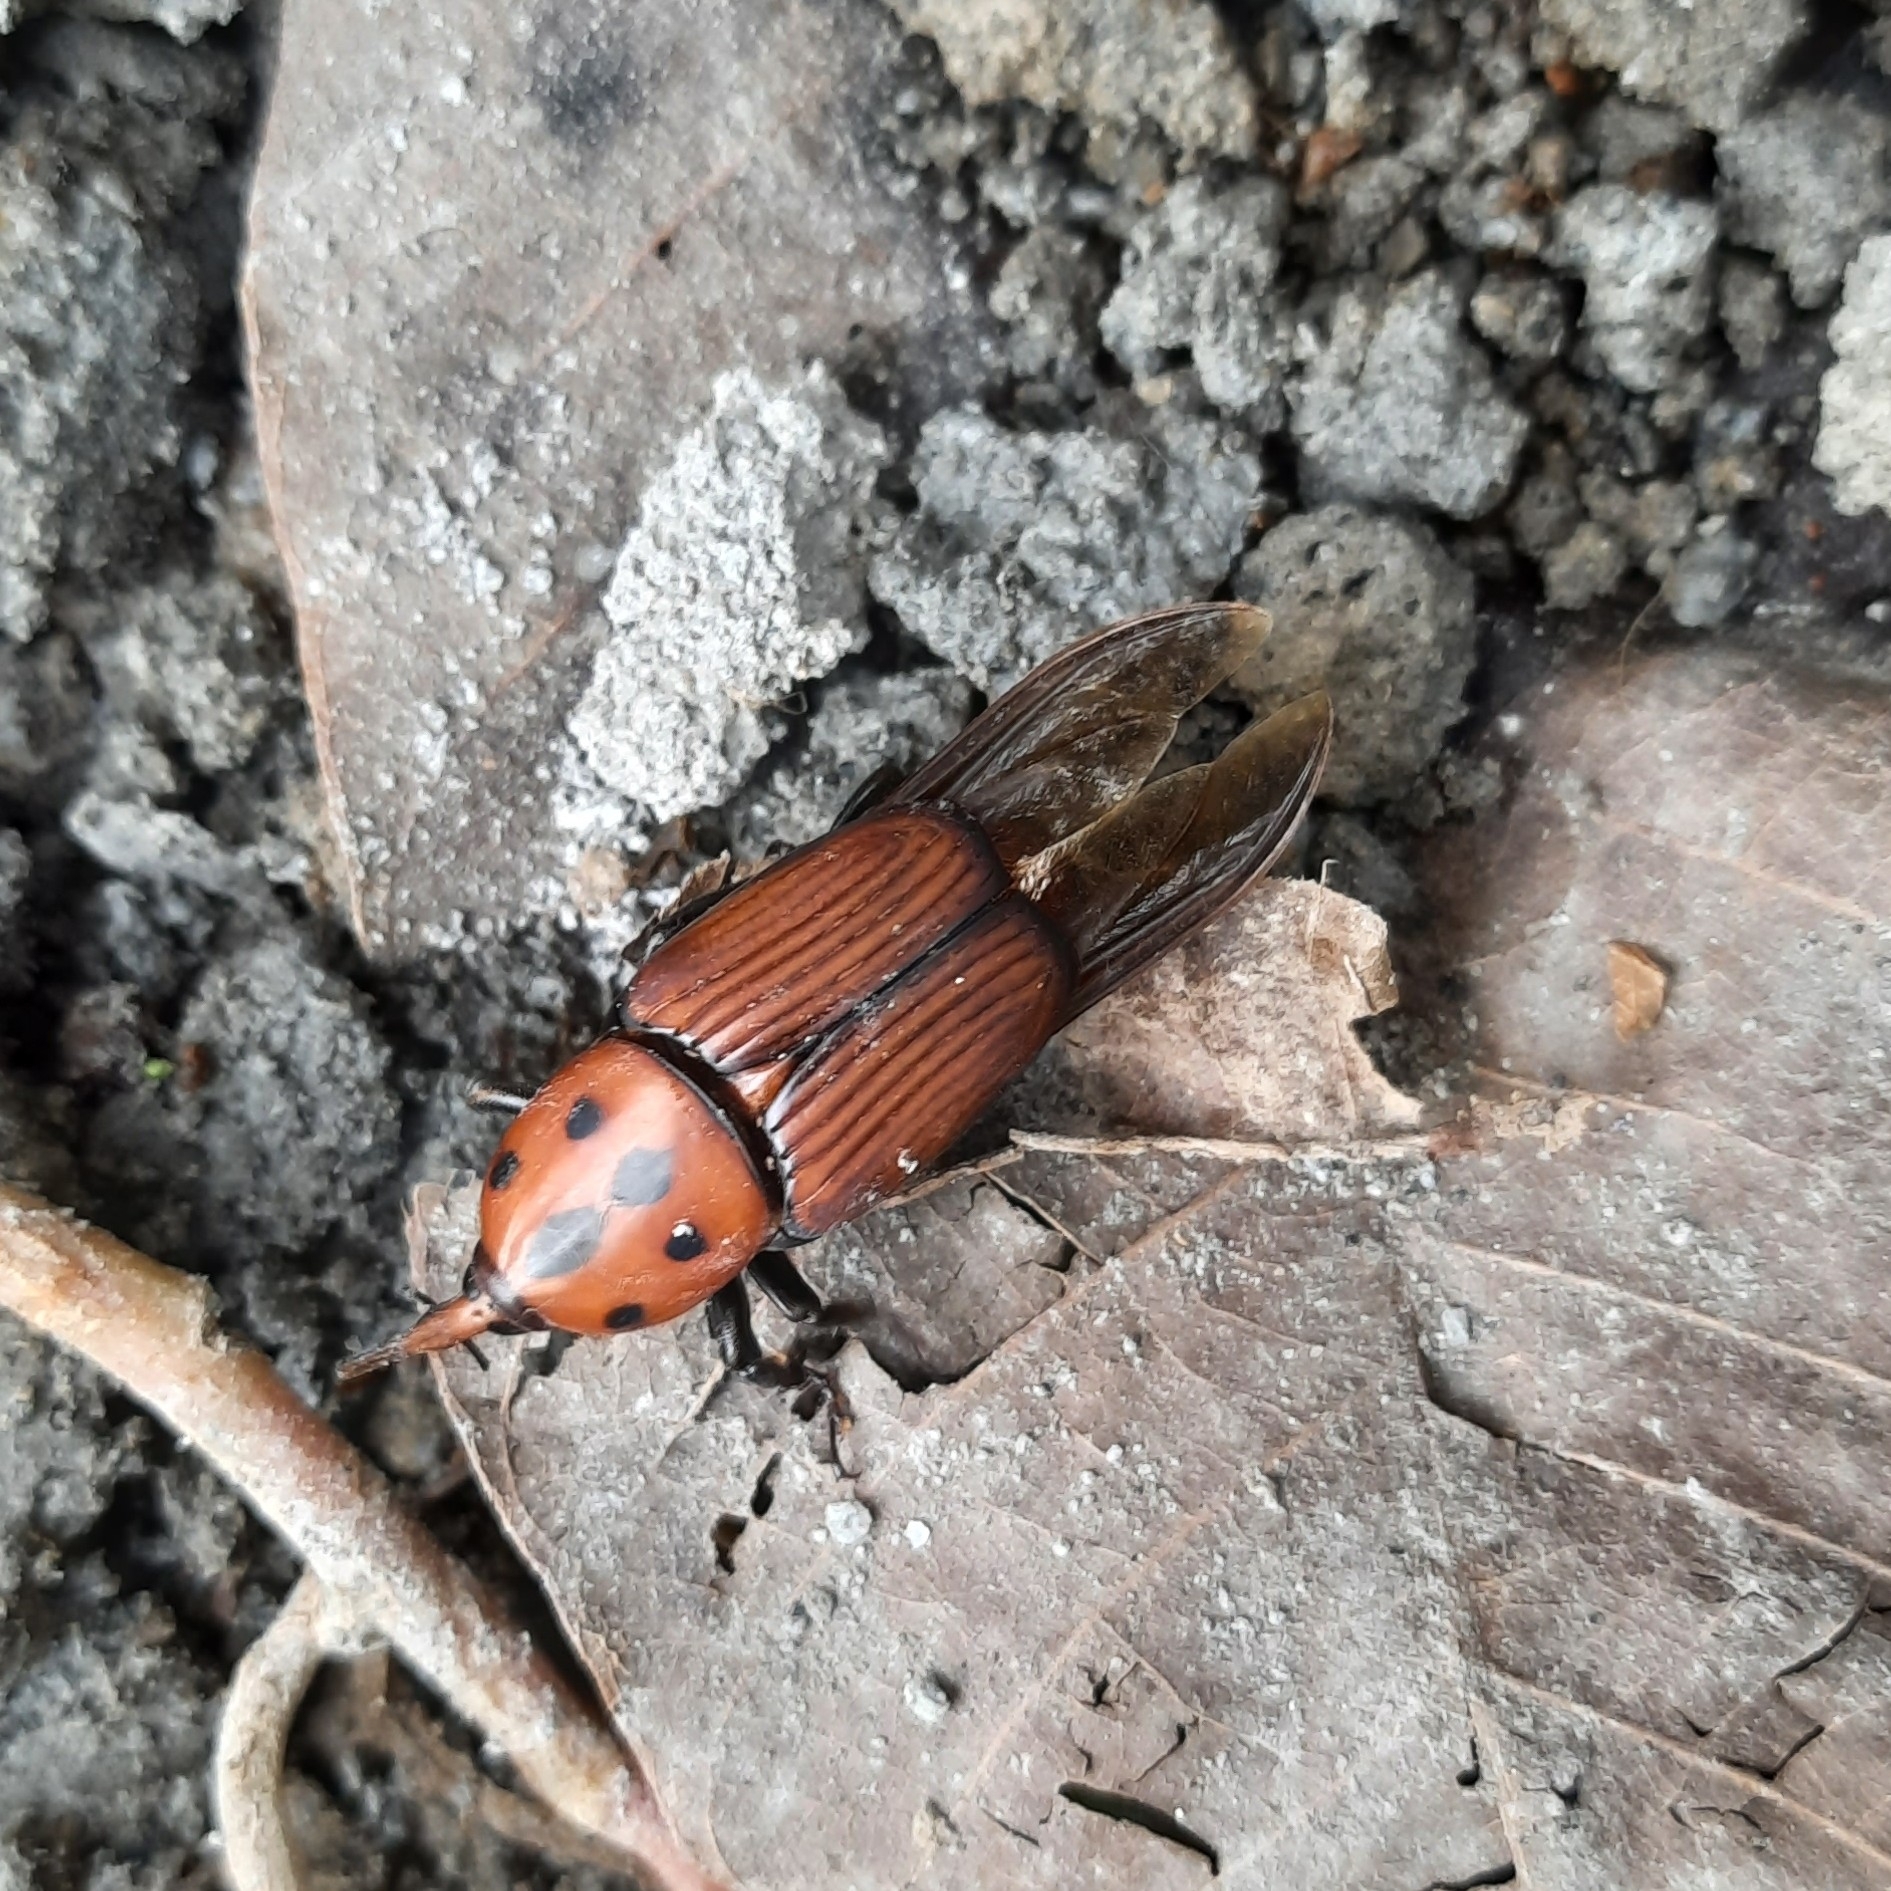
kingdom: Animalia
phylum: Arthropoda
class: Insecta
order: Coleoptera
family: Dryophthoridae
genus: Rhynchophorus
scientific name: Rhynchophorus ferrugineus
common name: Red palm weevil
